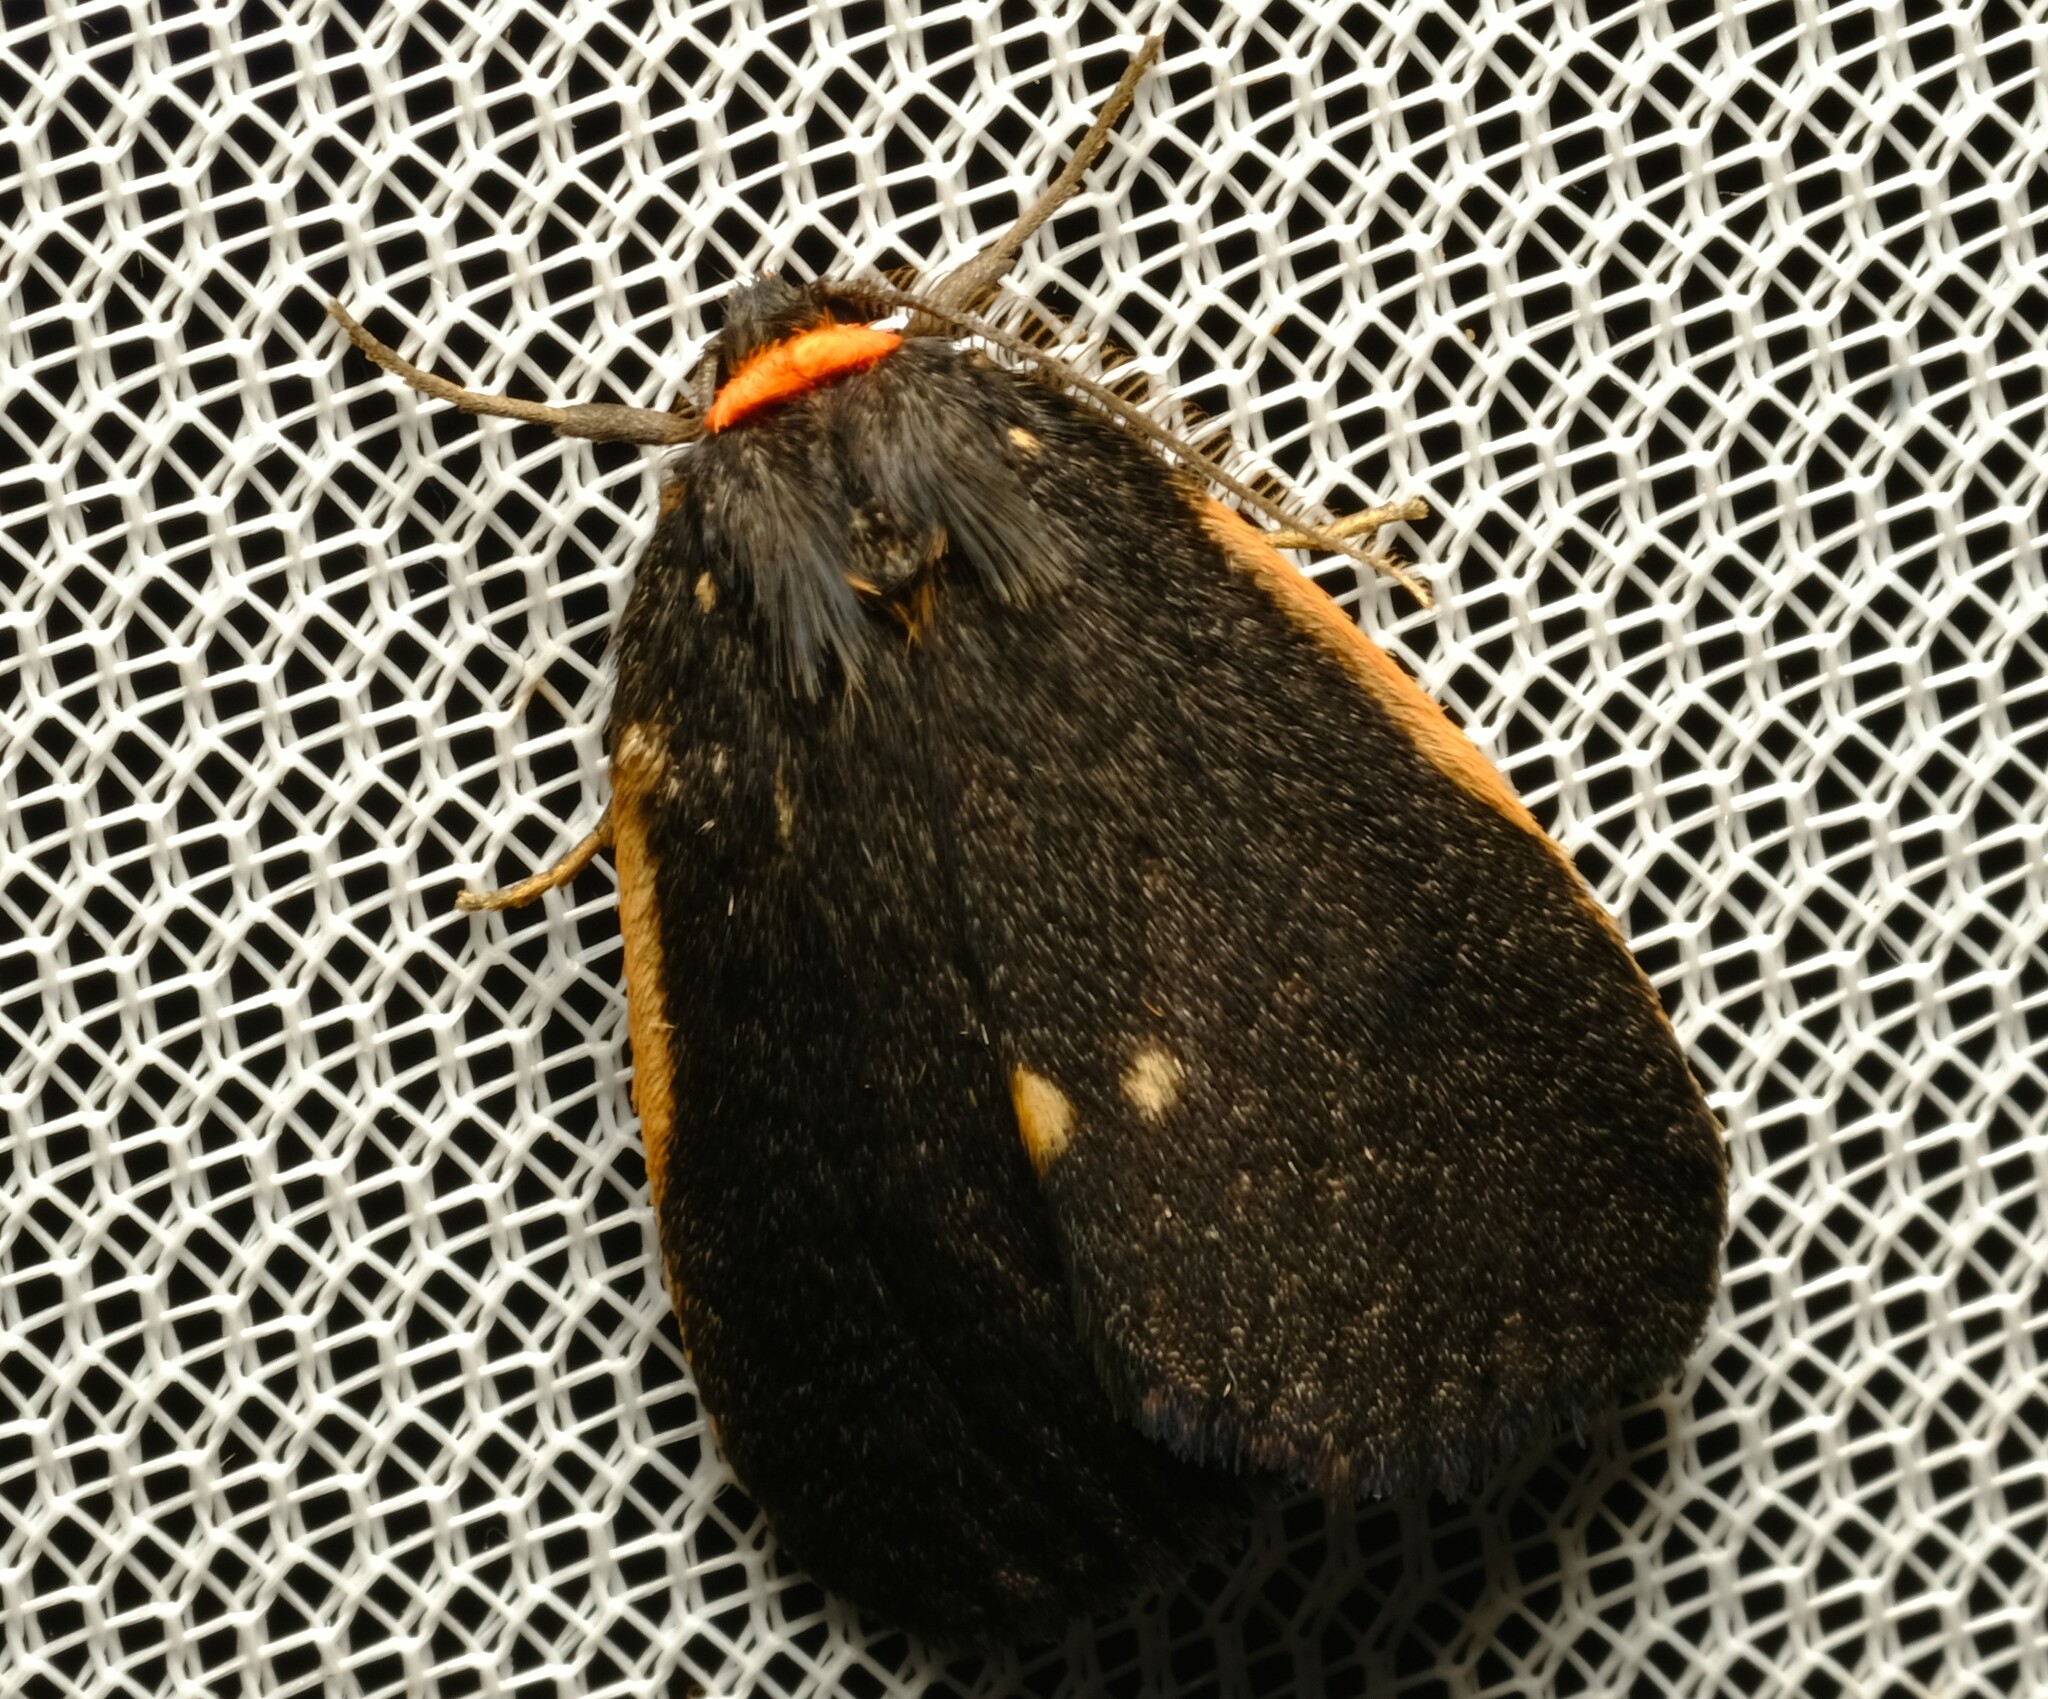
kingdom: Animalia
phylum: Arthropoda
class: Insecta
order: Lepidoptera
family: Erebidae
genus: Castulo
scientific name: Castulo doubledayi
